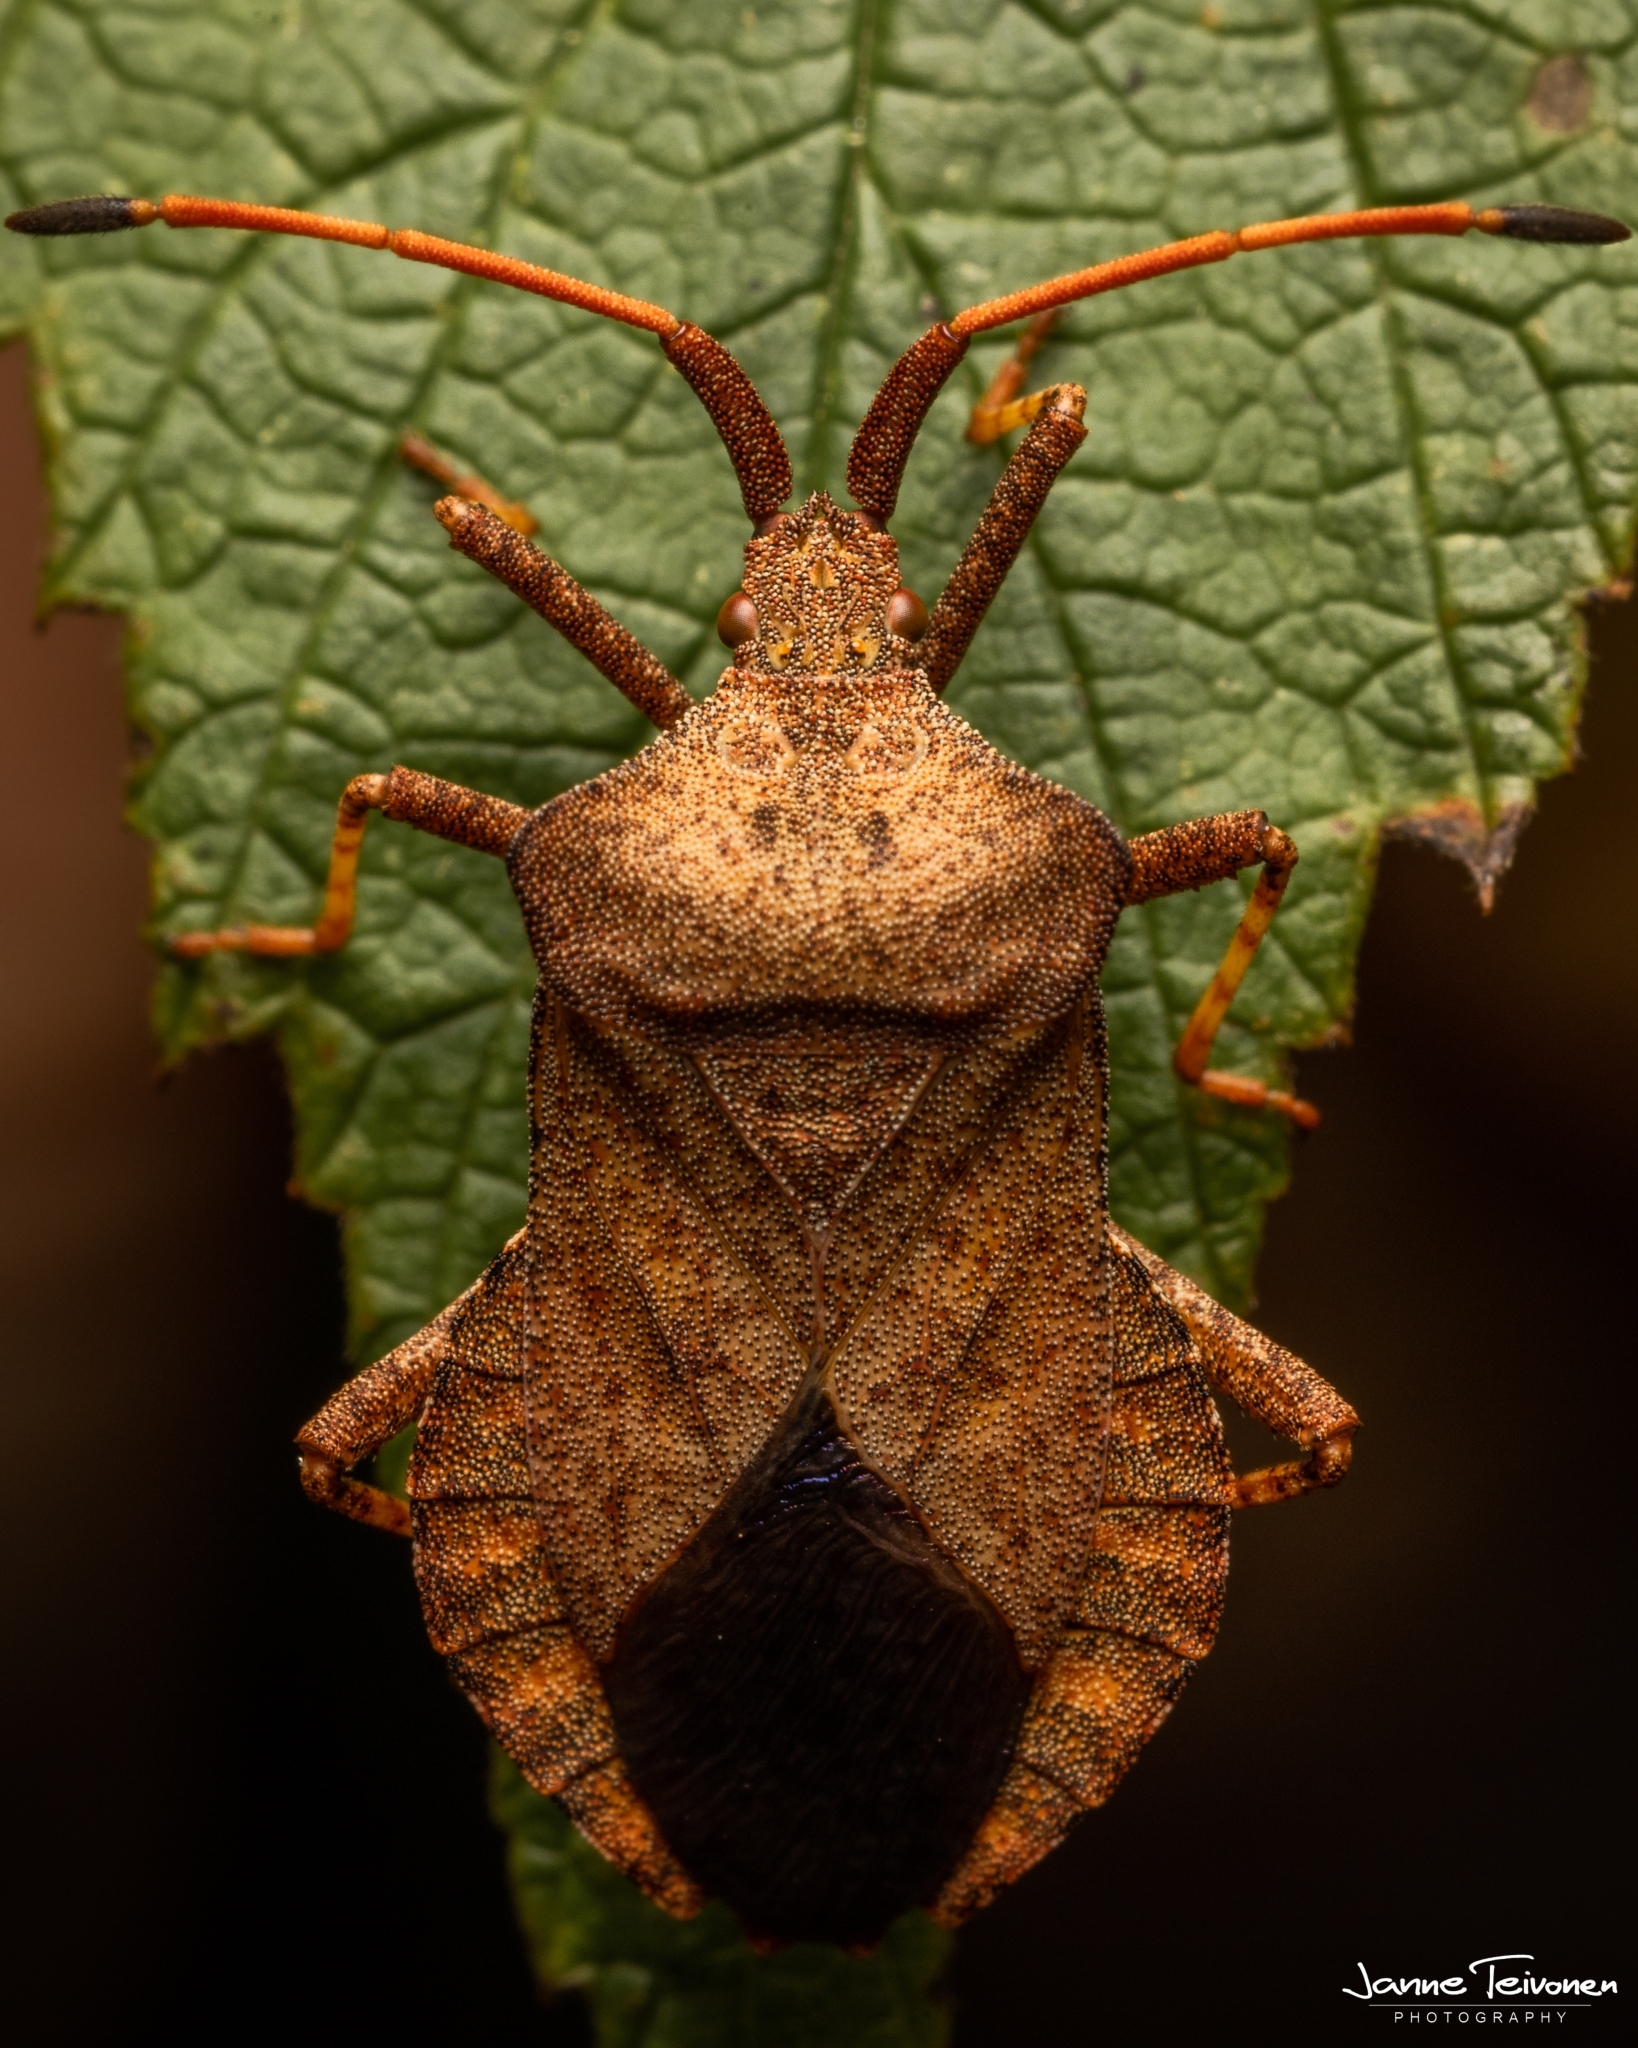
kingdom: Animalia
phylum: Arthropoda
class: Insecta
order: Hemiptera
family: Coreidae
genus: Coreus
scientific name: Coreus marginatus
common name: Dock bug
